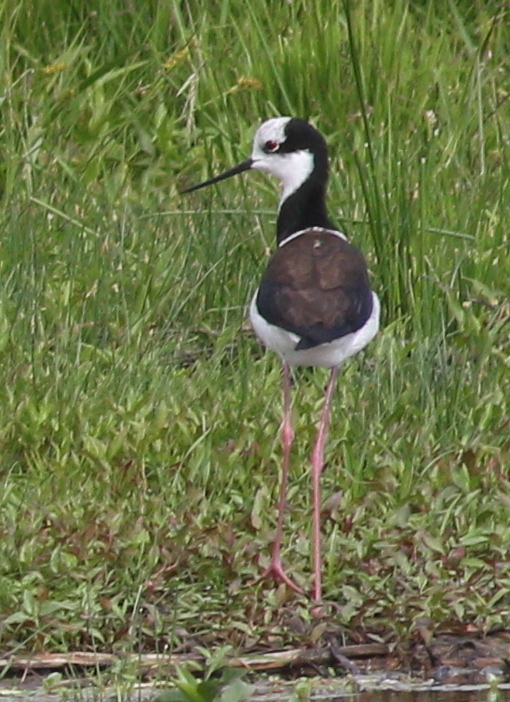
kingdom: Animalia
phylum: Chordata
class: Aves
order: Charadriiformes
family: Recurvirostridae
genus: Himantopus
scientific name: Himantopus mexicanus
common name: Black-necked stilt
